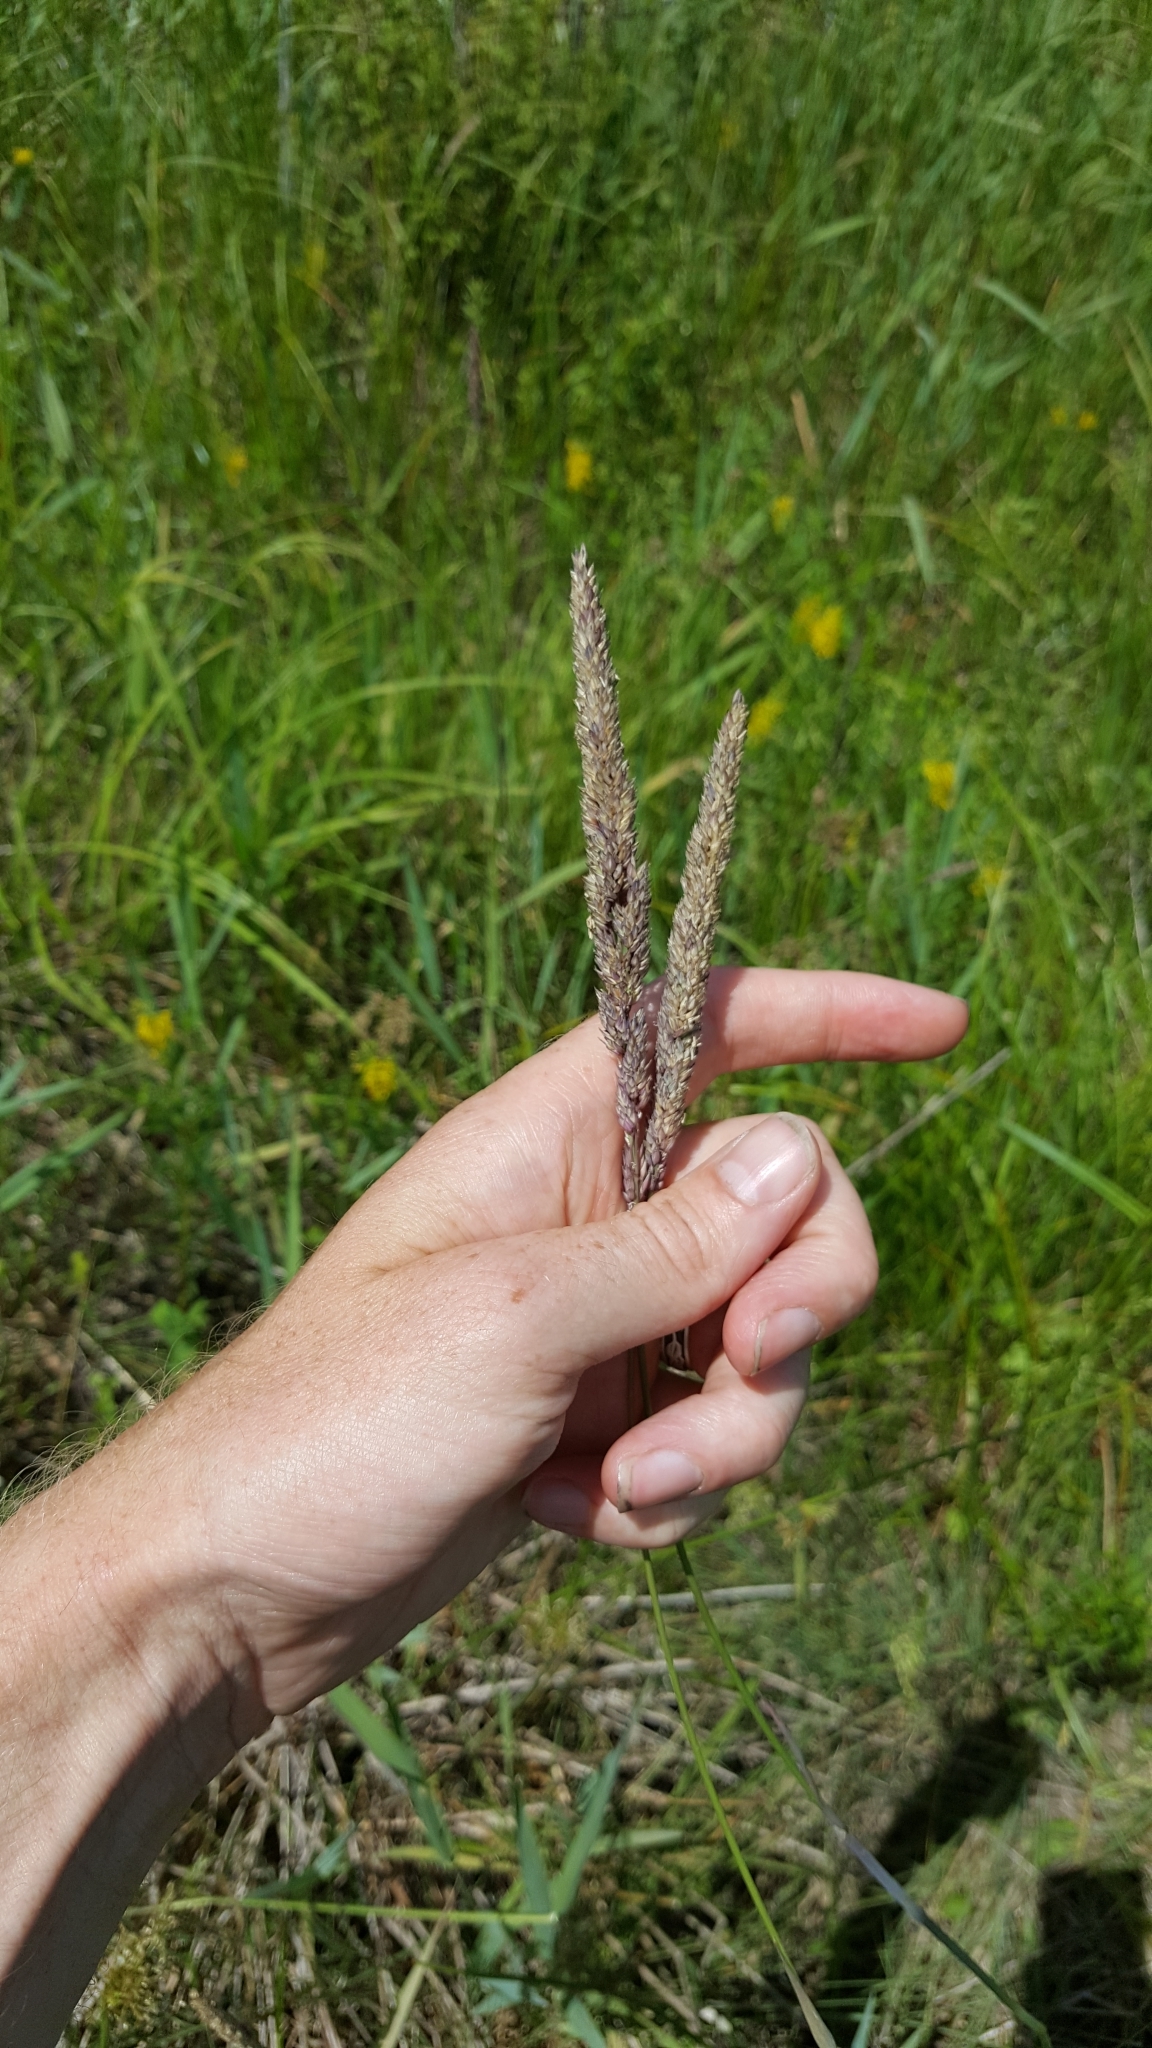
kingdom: Plantae
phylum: Tracheophyta
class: Liliopsida
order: Poales
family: Poaceae
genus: Phalaris
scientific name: Phalaris arundinacea
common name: Reed canary-grass
